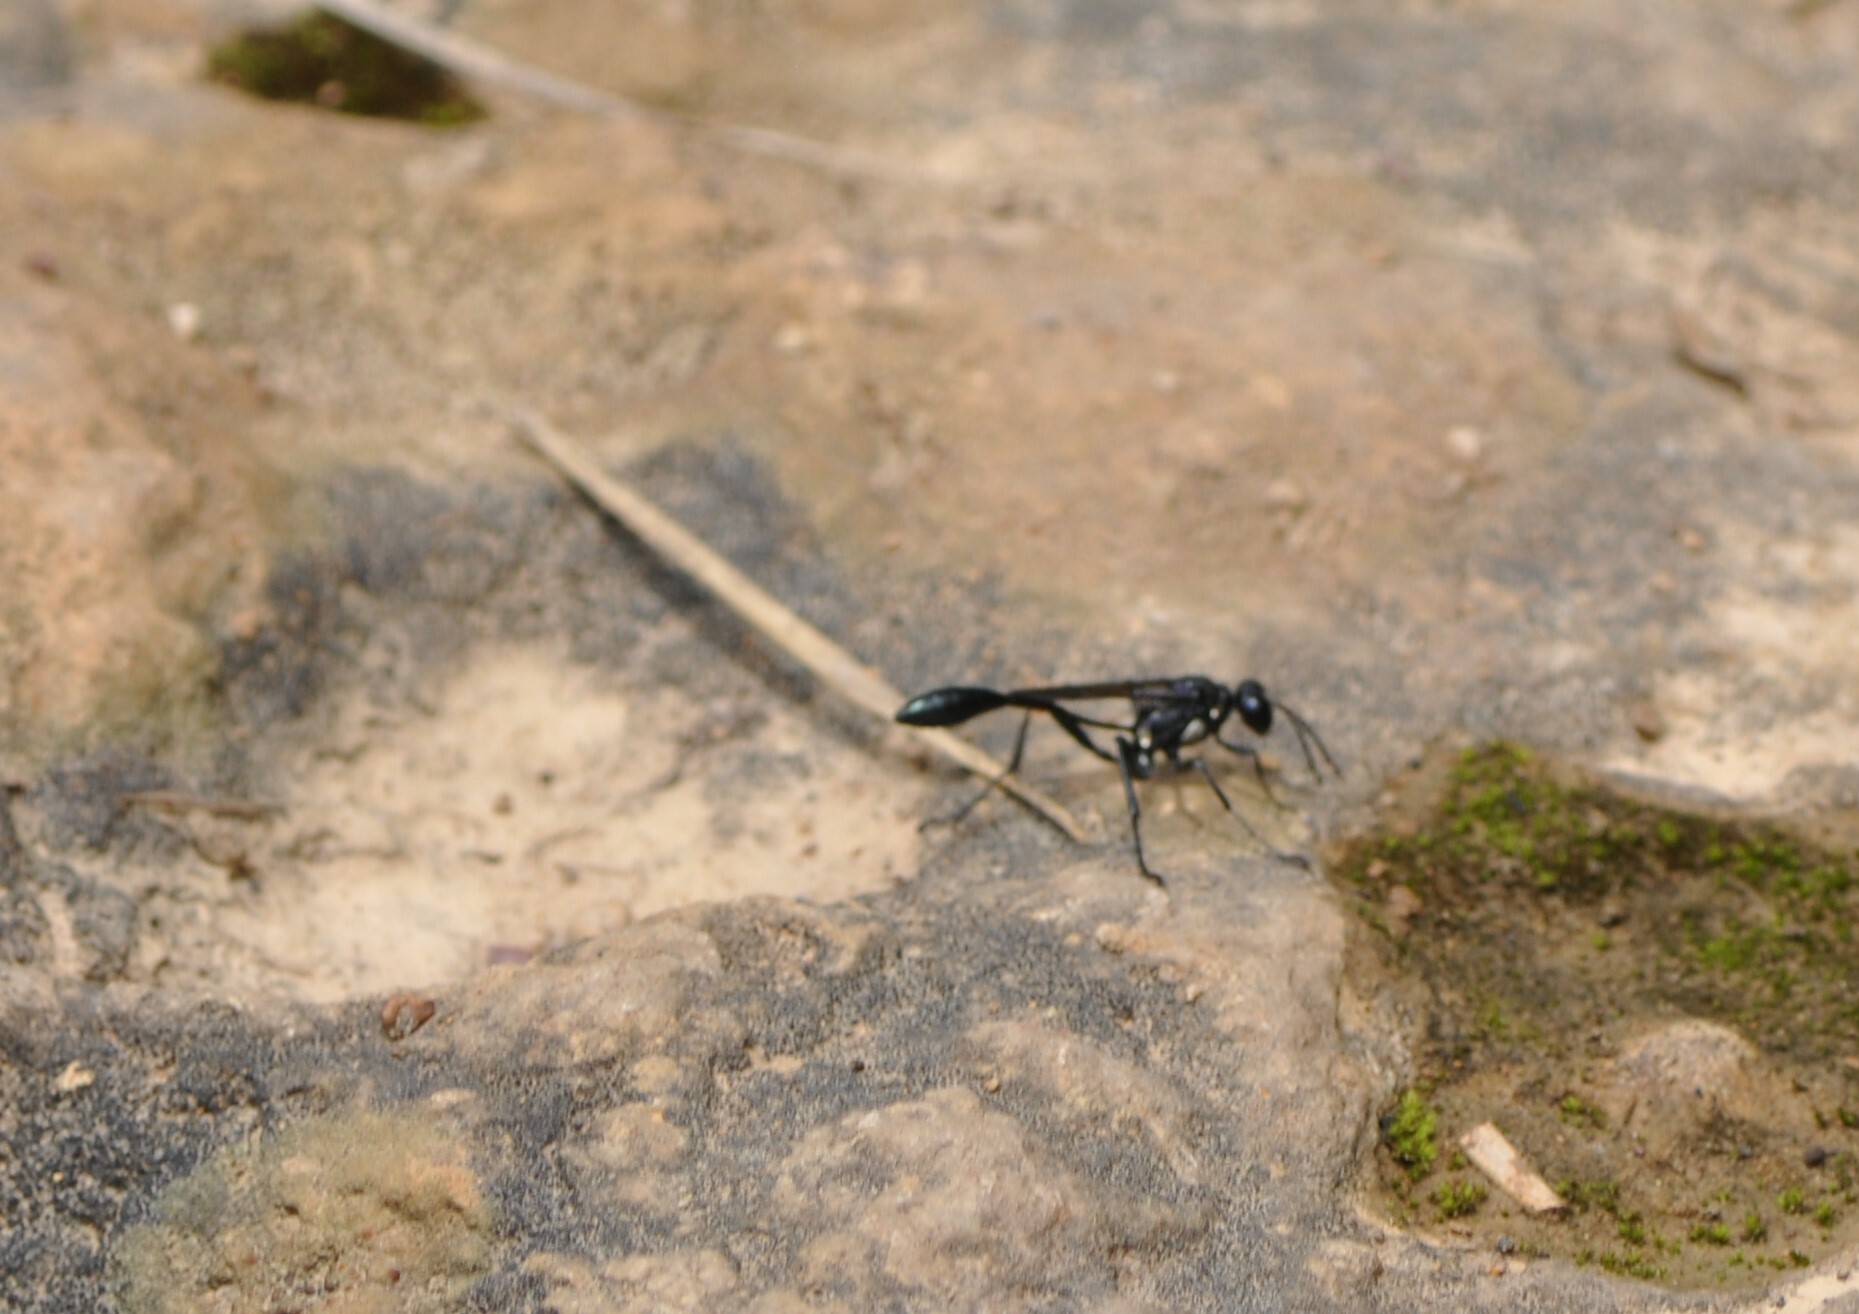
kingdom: Animalia
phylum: Arthropoda
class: Insecta
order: Hymenoptera
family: Sphecidae
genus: Eremnophila
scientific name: Eremnophila aureonotata
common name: Gold-marked thread-waisted wasp
